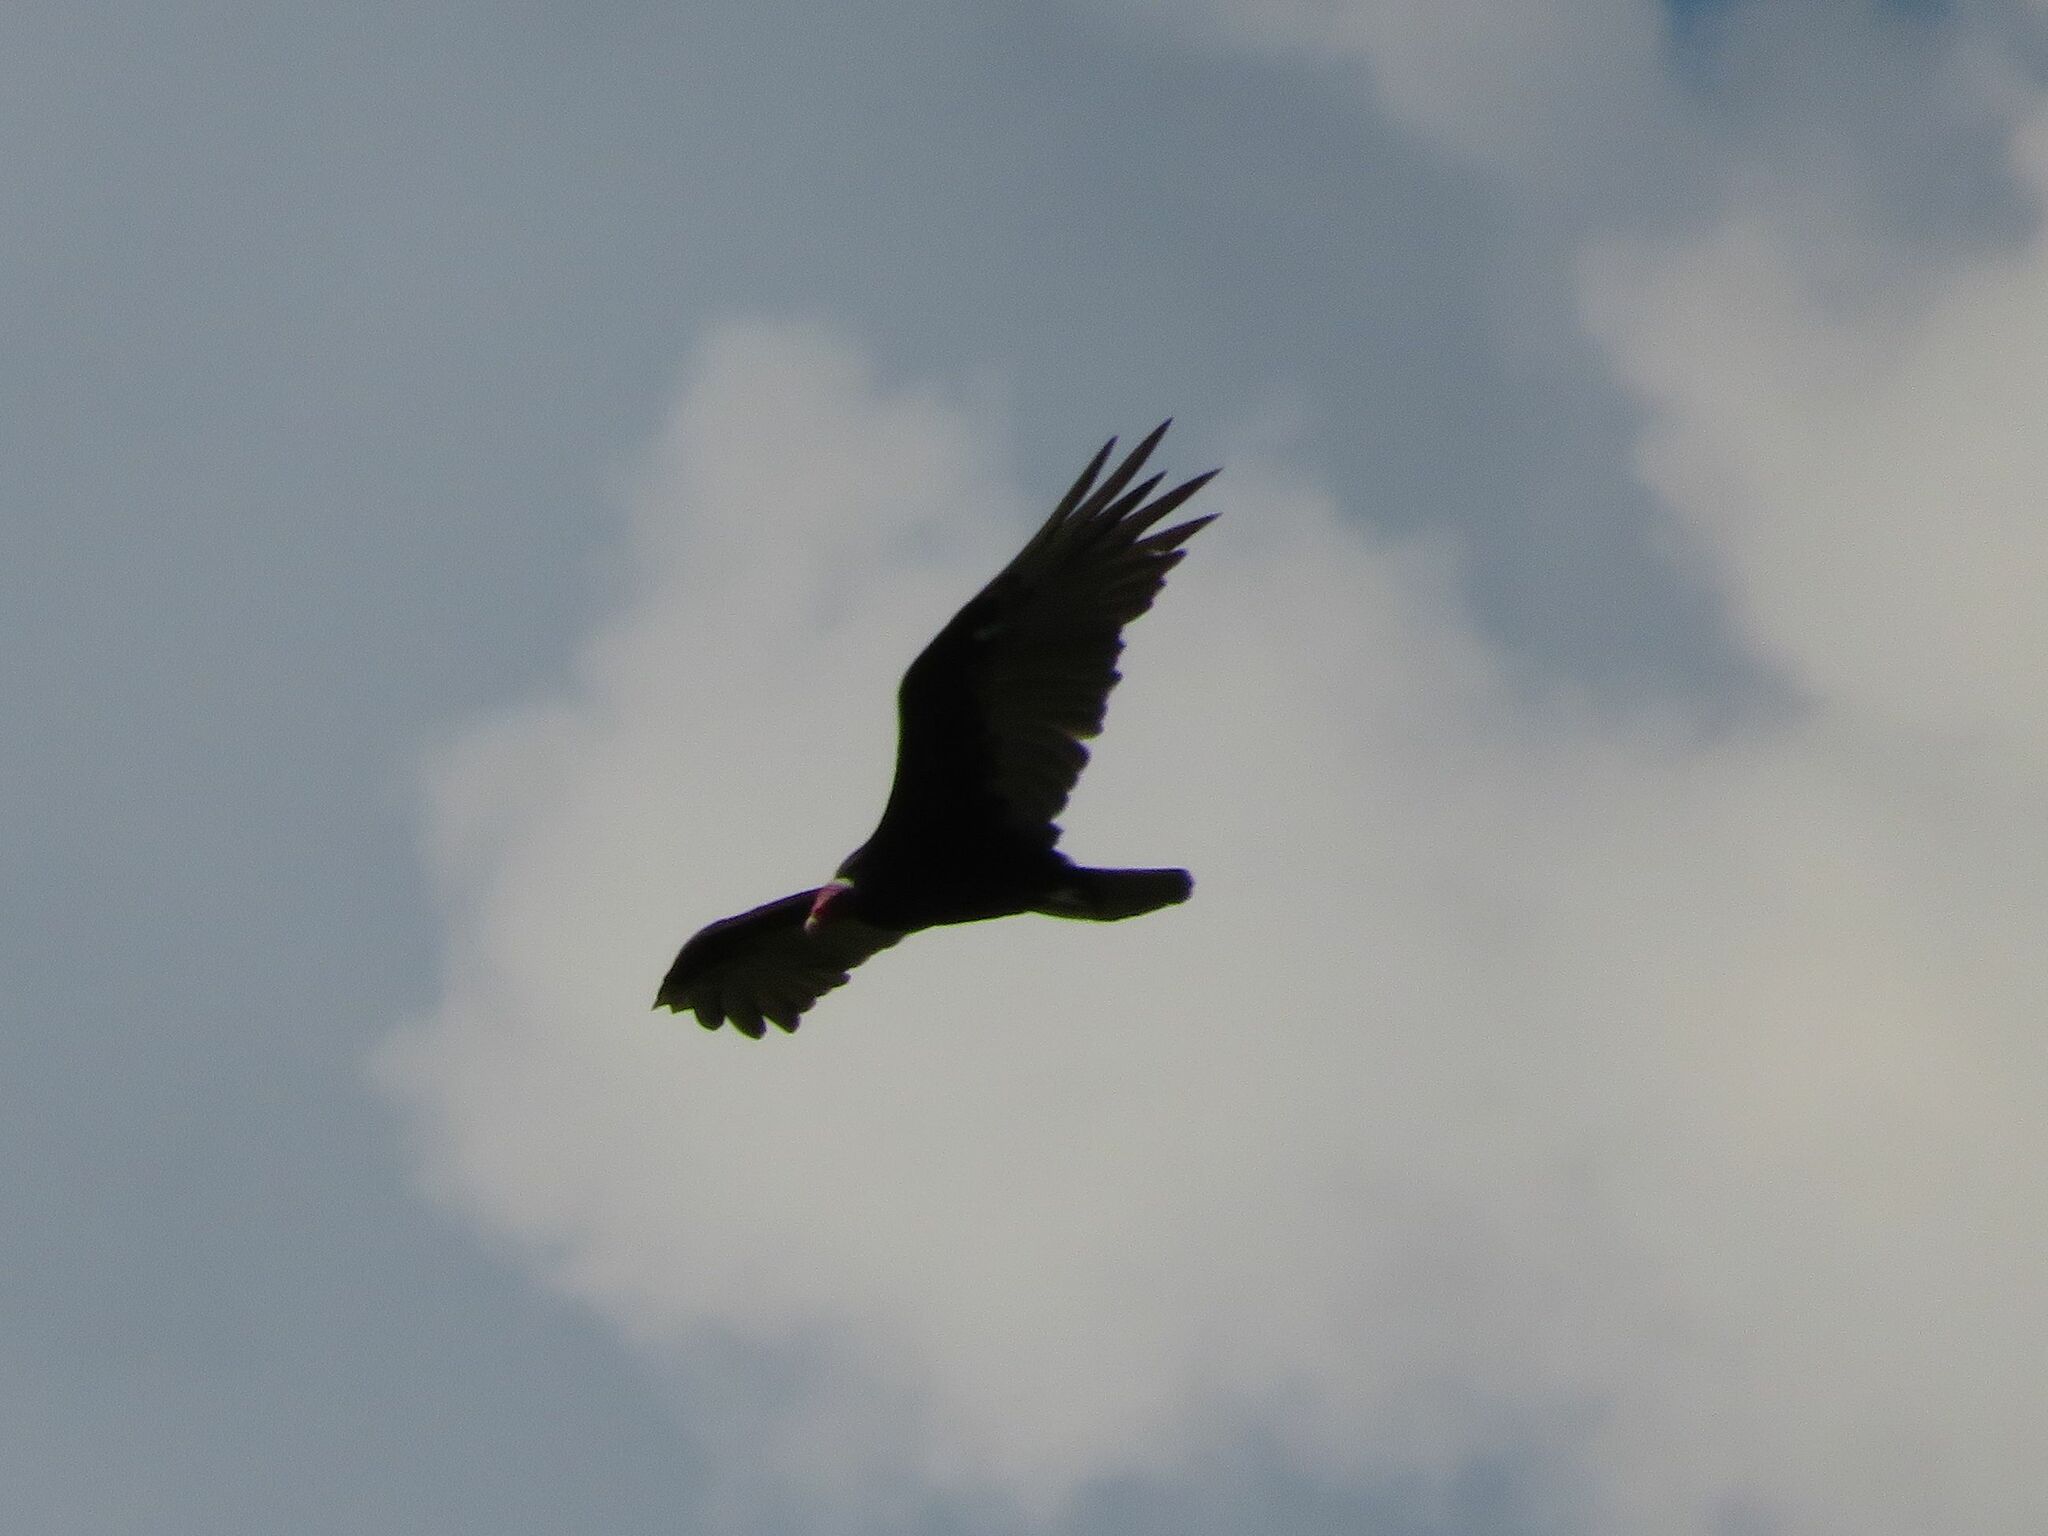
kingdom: Animalia
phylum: Chordata
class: Aves
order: Accipitriformes
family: Cathartidae
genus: Cathartes
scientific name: Cathartes aura
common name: Turkey vulture
